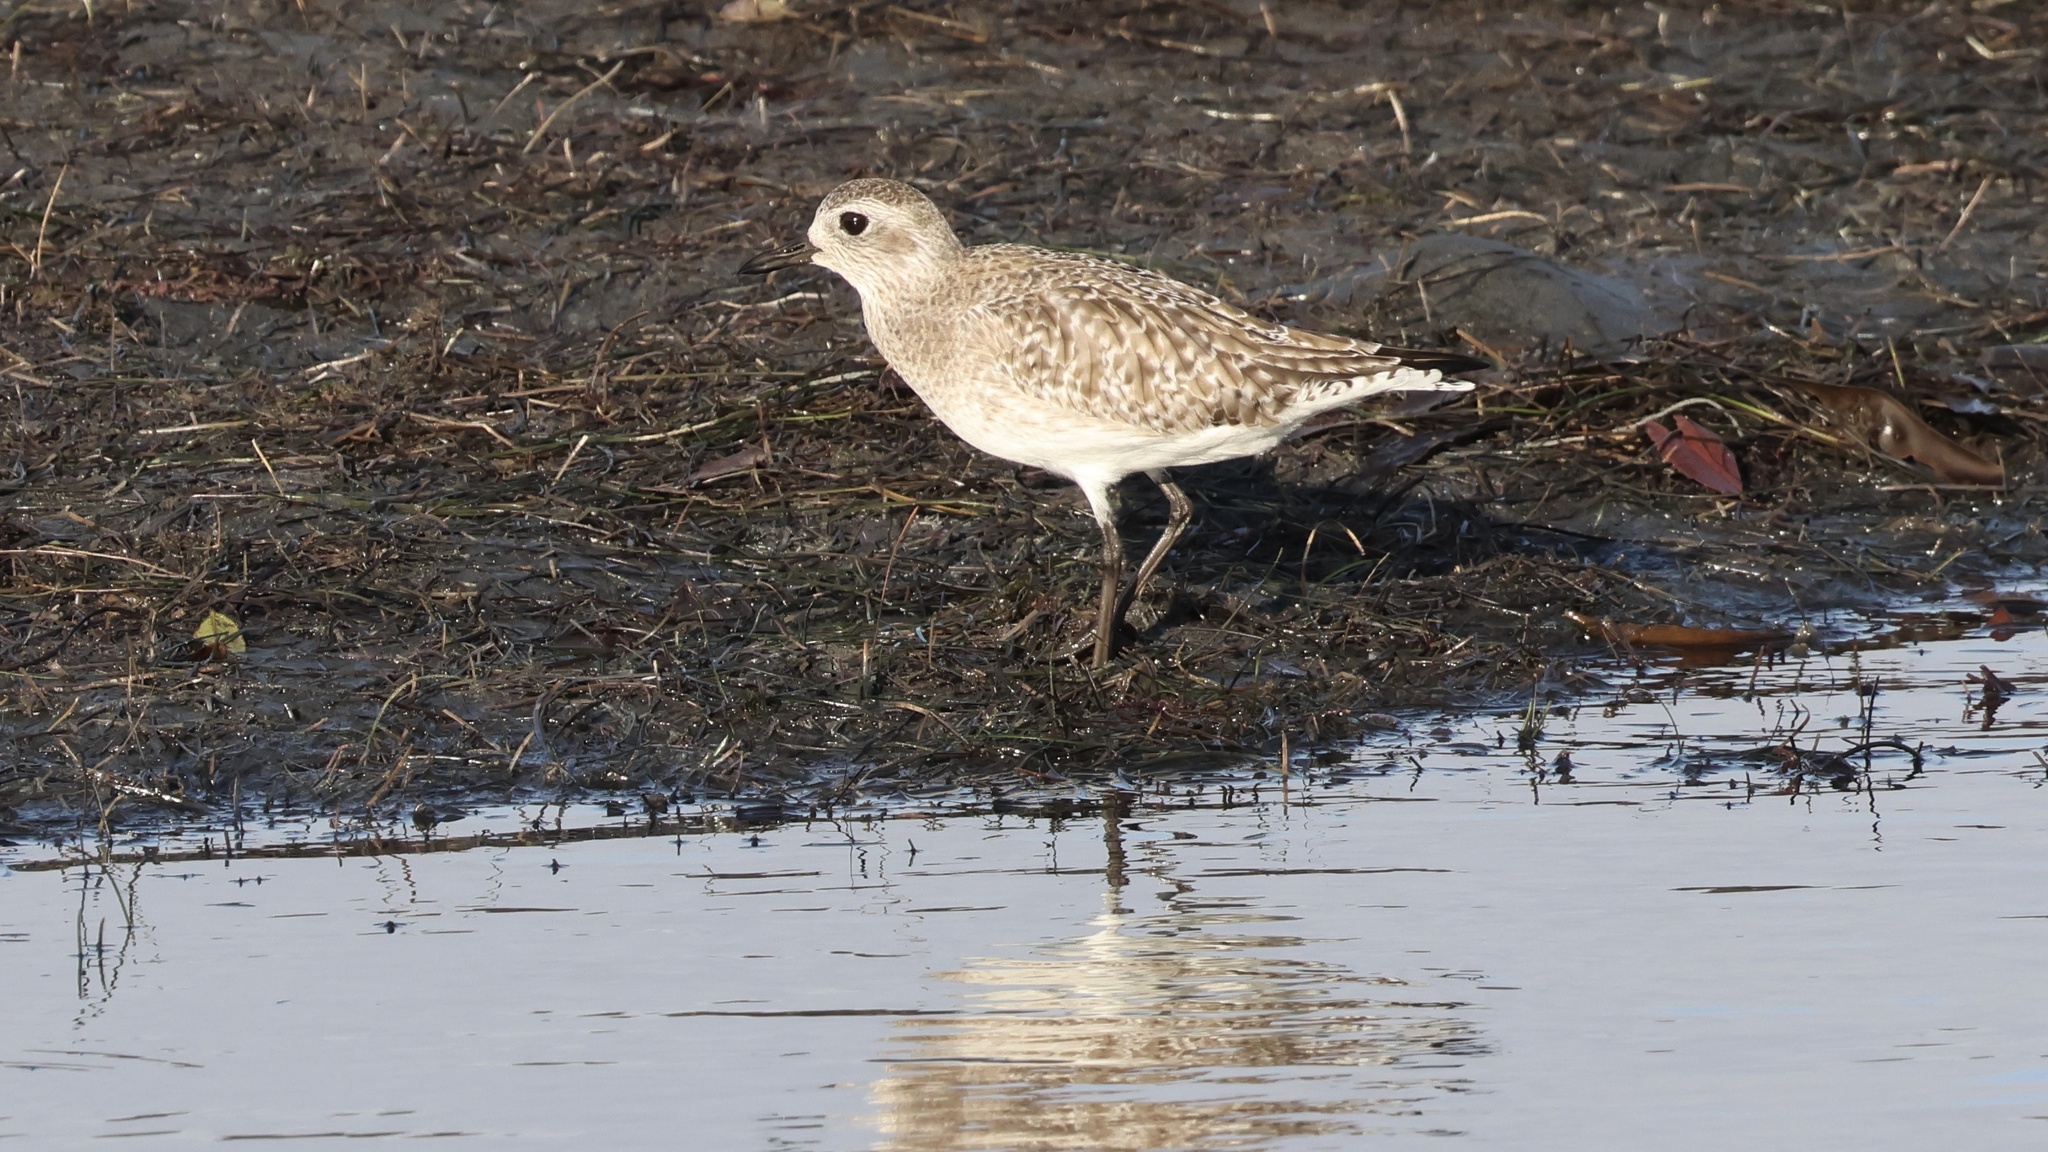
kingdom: Animalia
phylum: Chordata
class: Aves
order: Charadriiformes
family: Charadriidae
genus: Pluvialis
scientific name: Pluvialis squatarola
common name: Grey plover
